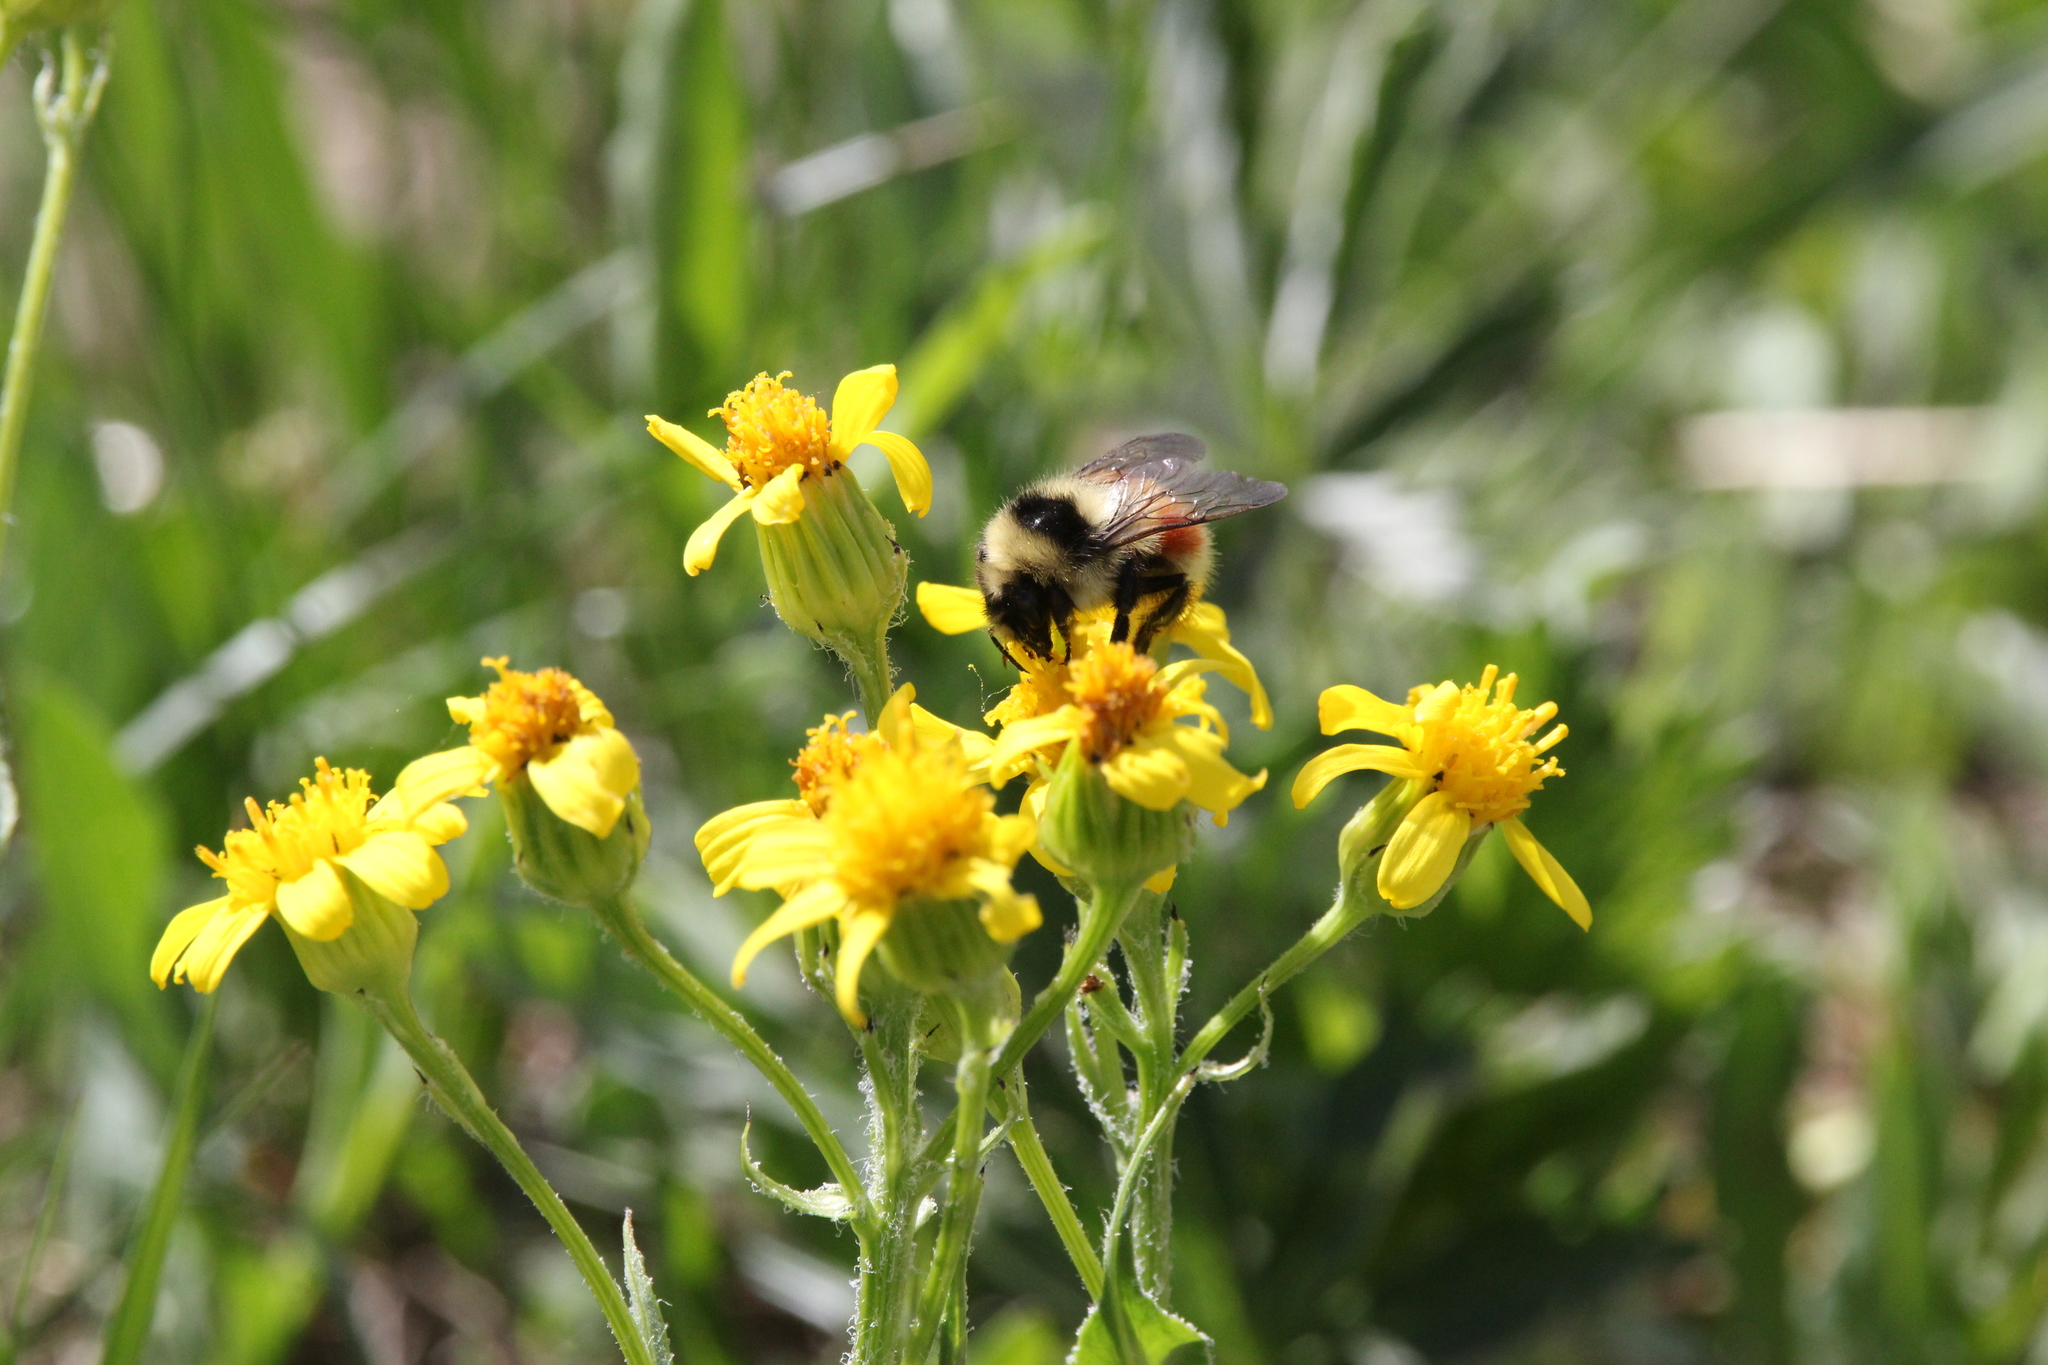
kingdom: Animalia
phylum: Arthropoda
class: Insecta
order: Hymenoptera
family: Apidae
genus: Bombus
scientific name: Bombus sylvicola
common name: Forest bumble bee
